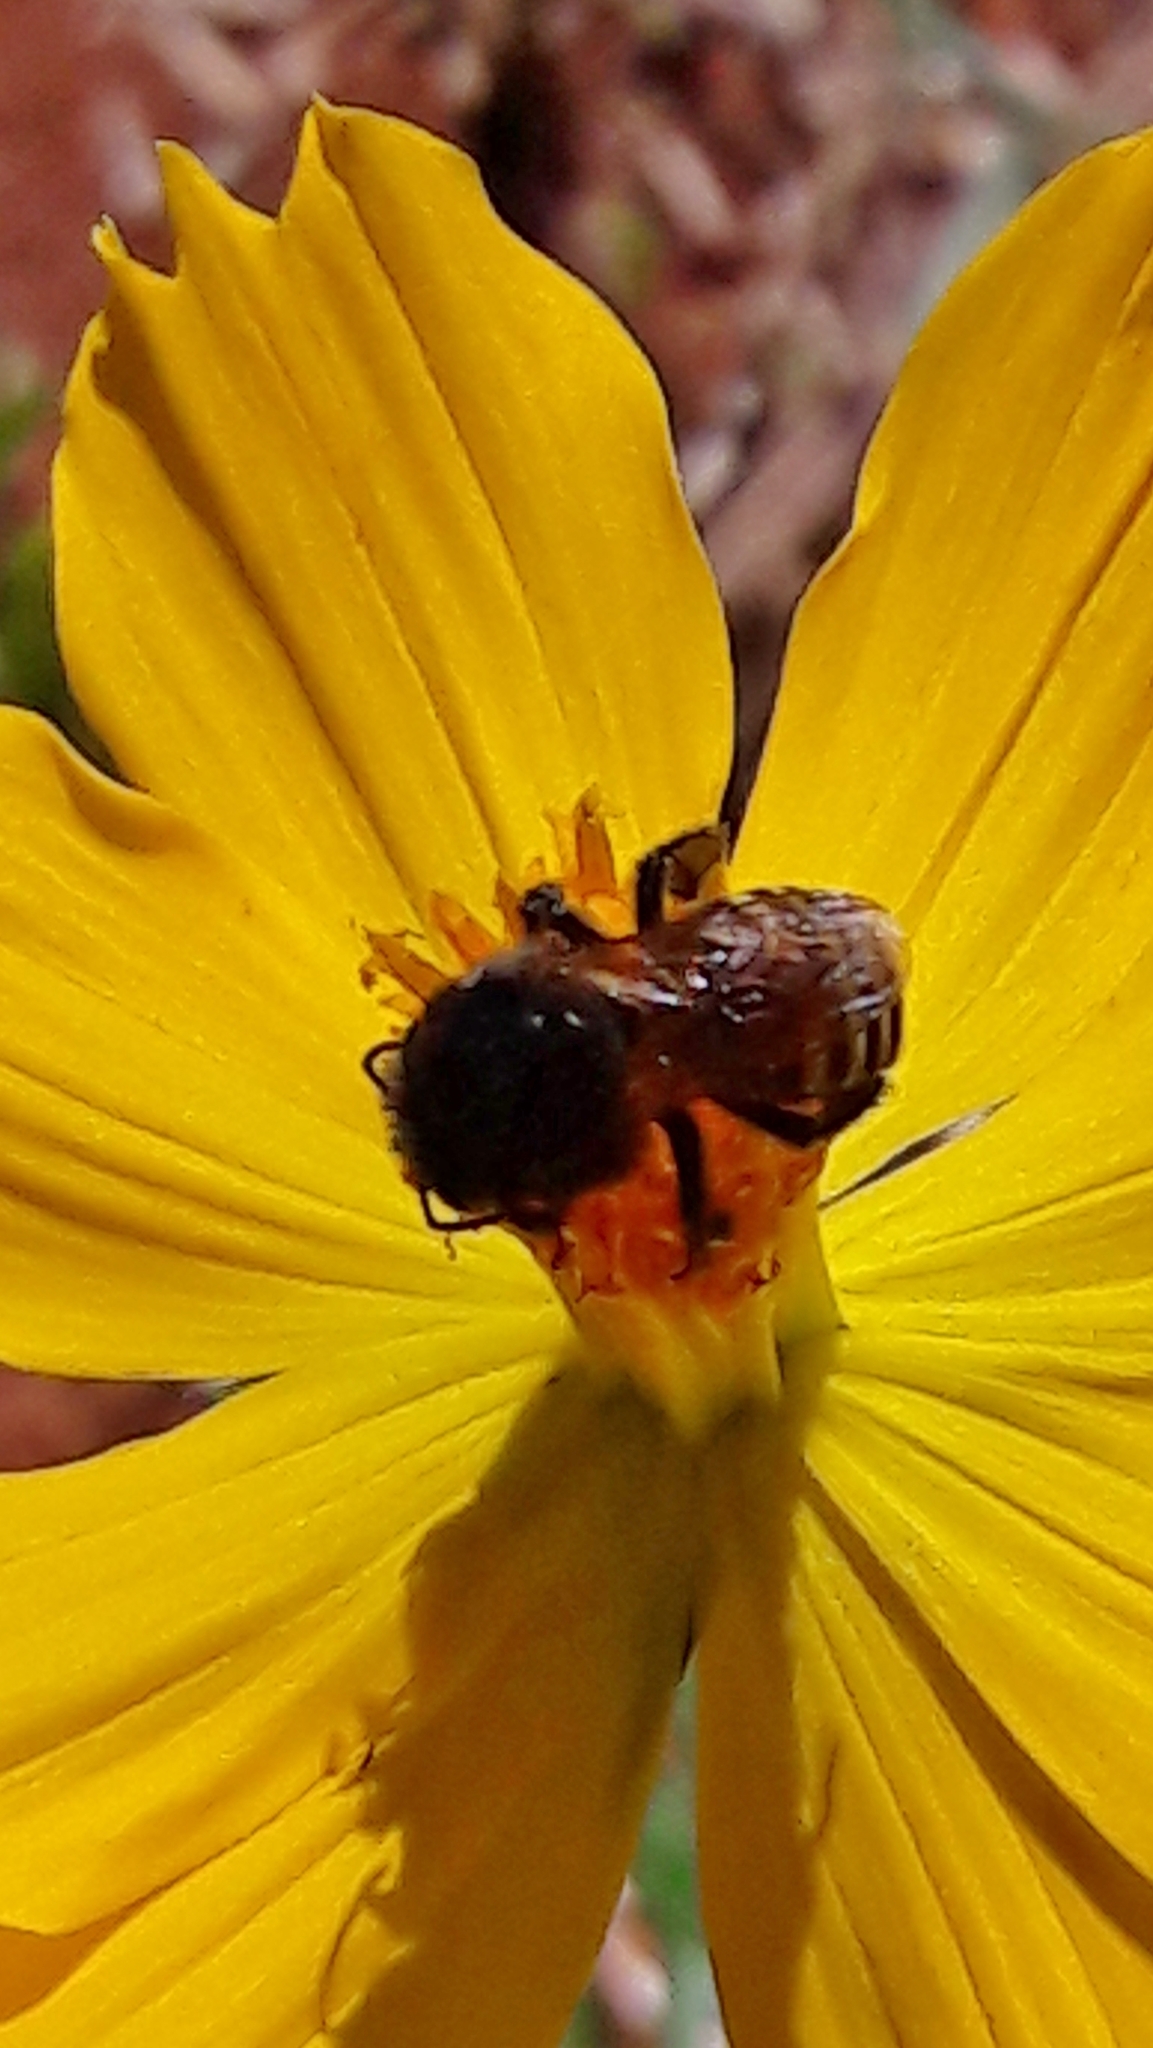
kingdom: Animalia
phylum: Arthropoda
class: Insecta
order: Hymenoptera
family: Apidae
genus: Melipona
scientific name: Melipona quadrifasciata
